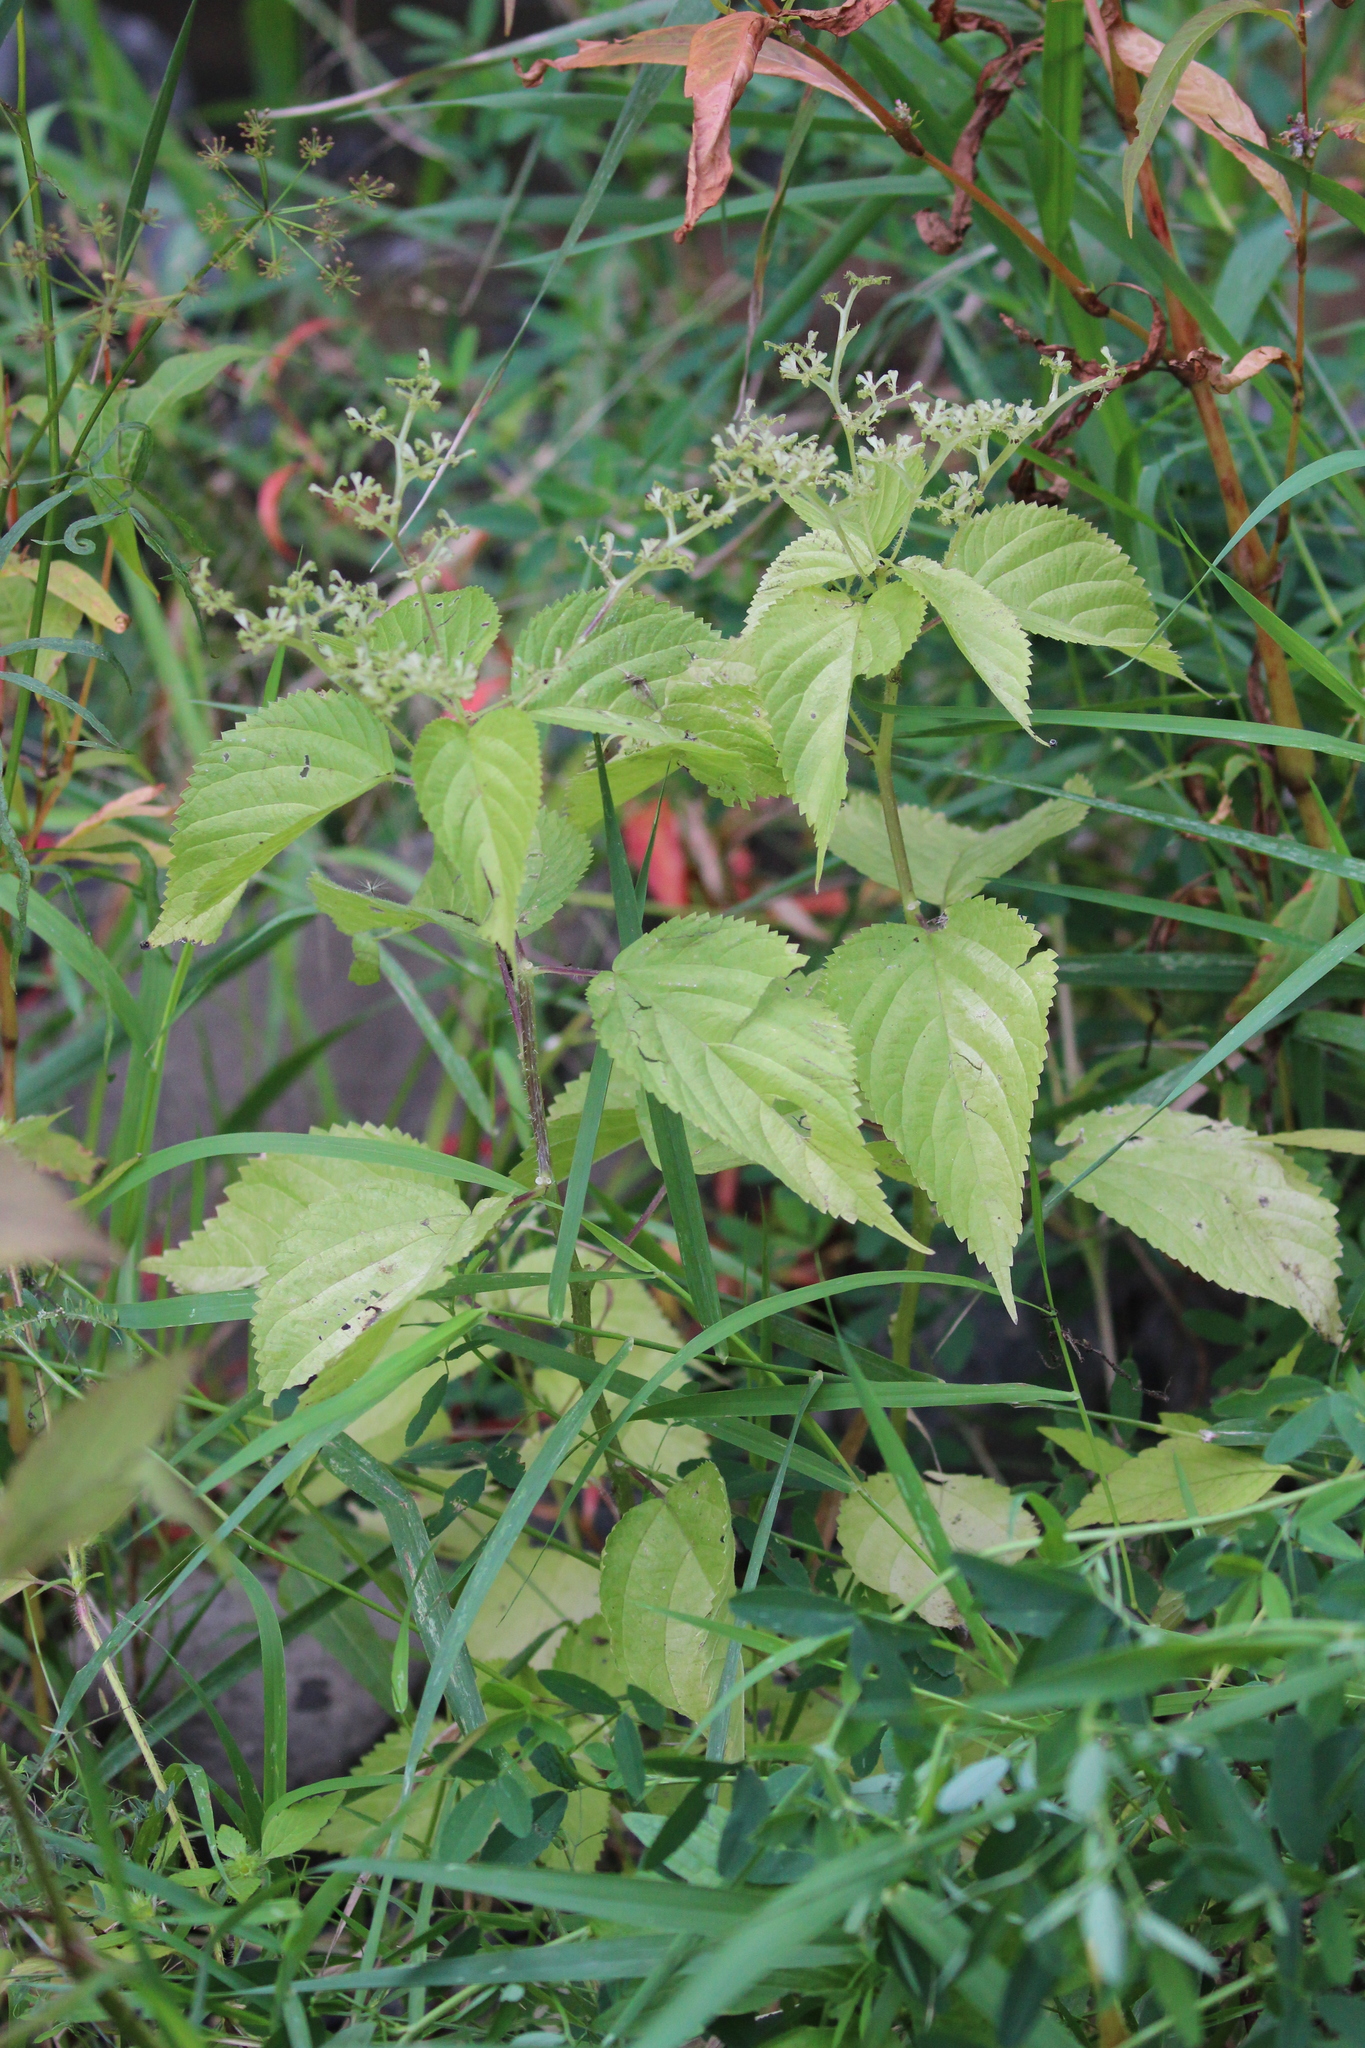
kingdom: Plantae
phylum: Tracheophyta
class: Magnoliopsida
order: Rosales
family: Urticaceae
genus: Laportea
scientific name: Laportea canadensis
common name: Canada nettle
